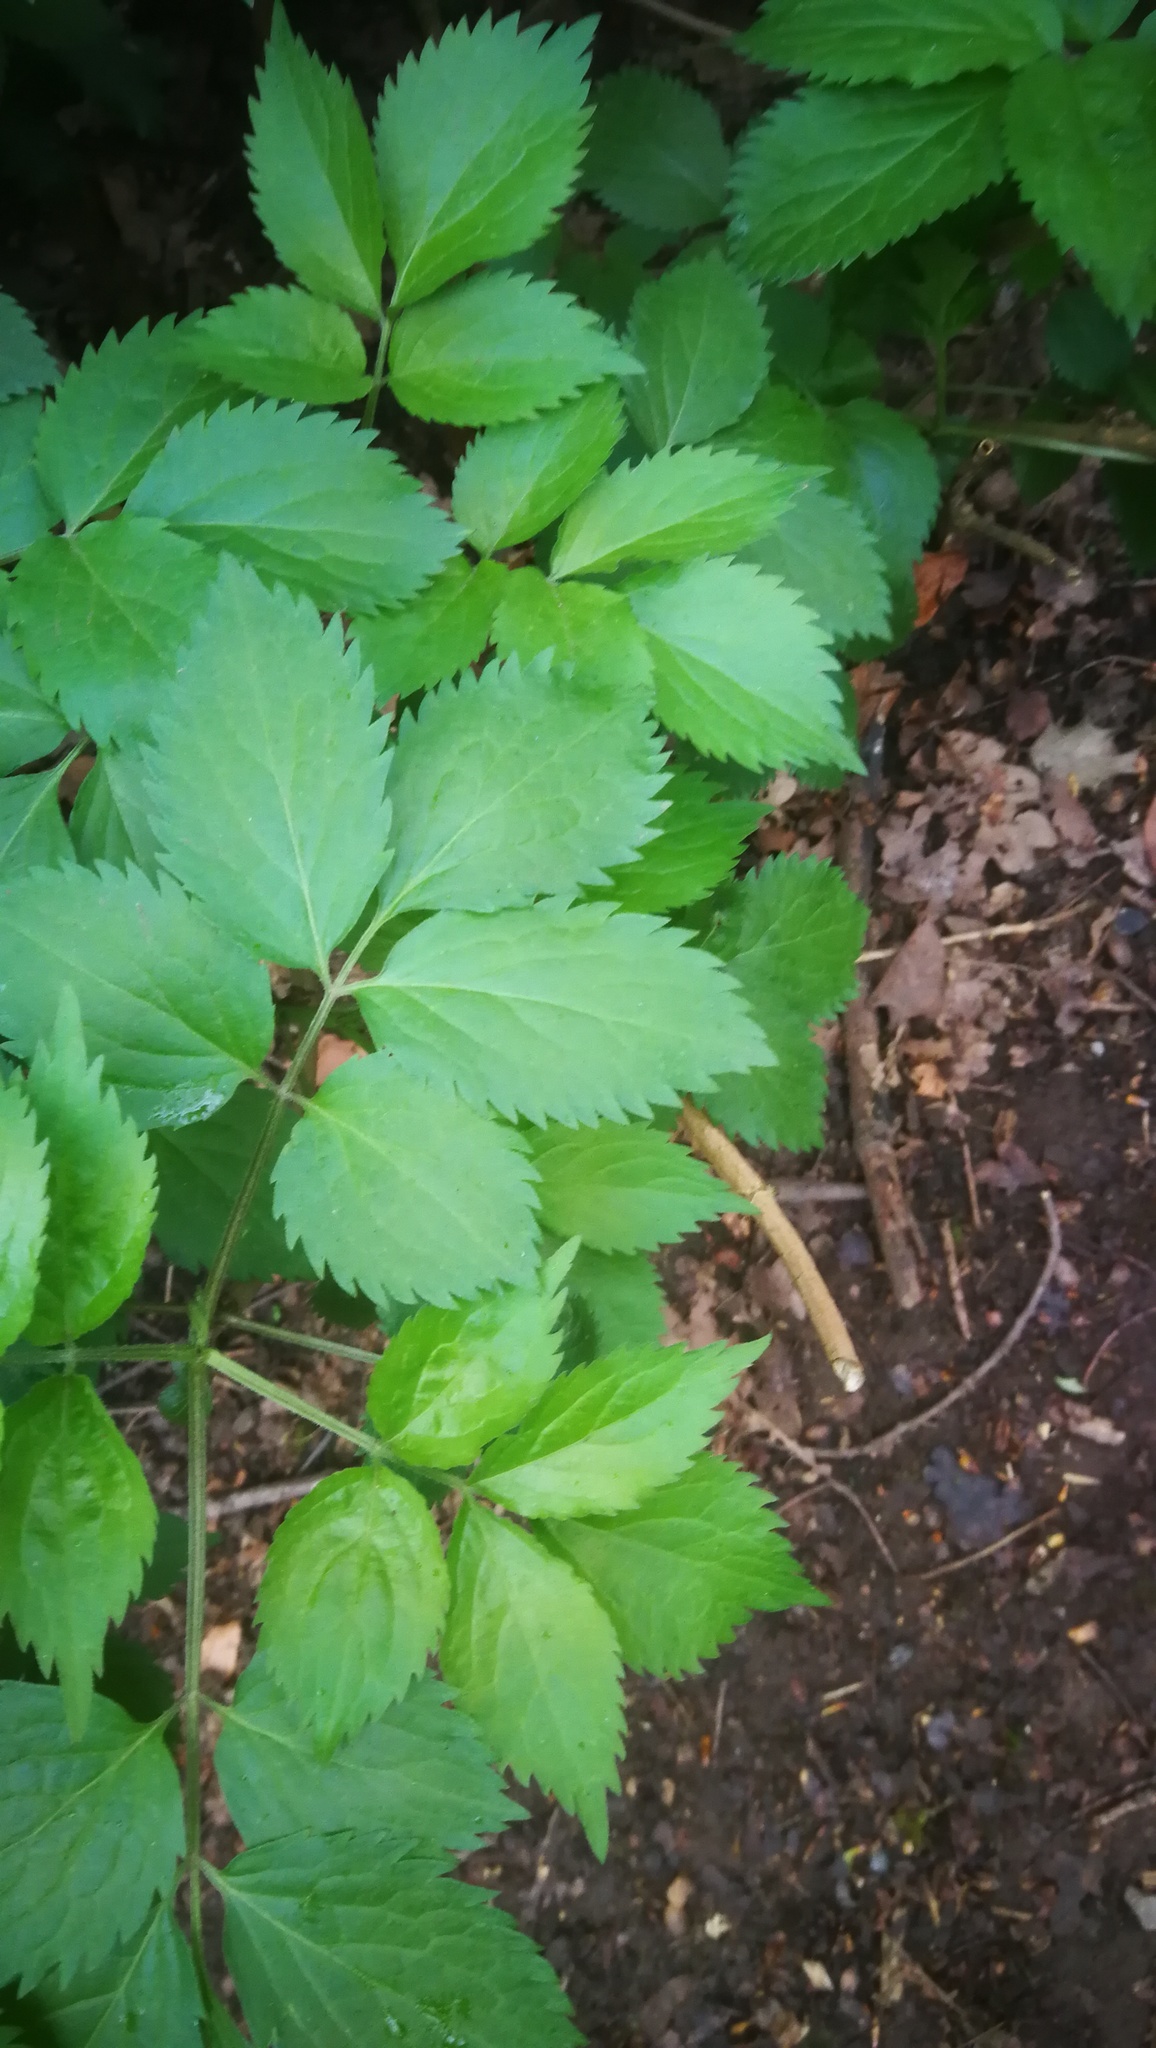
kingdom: Plantae
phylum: Tracheophyta
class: Magnoliopsida
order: Apiales
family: Apiaceae
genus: Aegopodium
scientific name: Aegopodium podagraria
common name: Ground-elder
